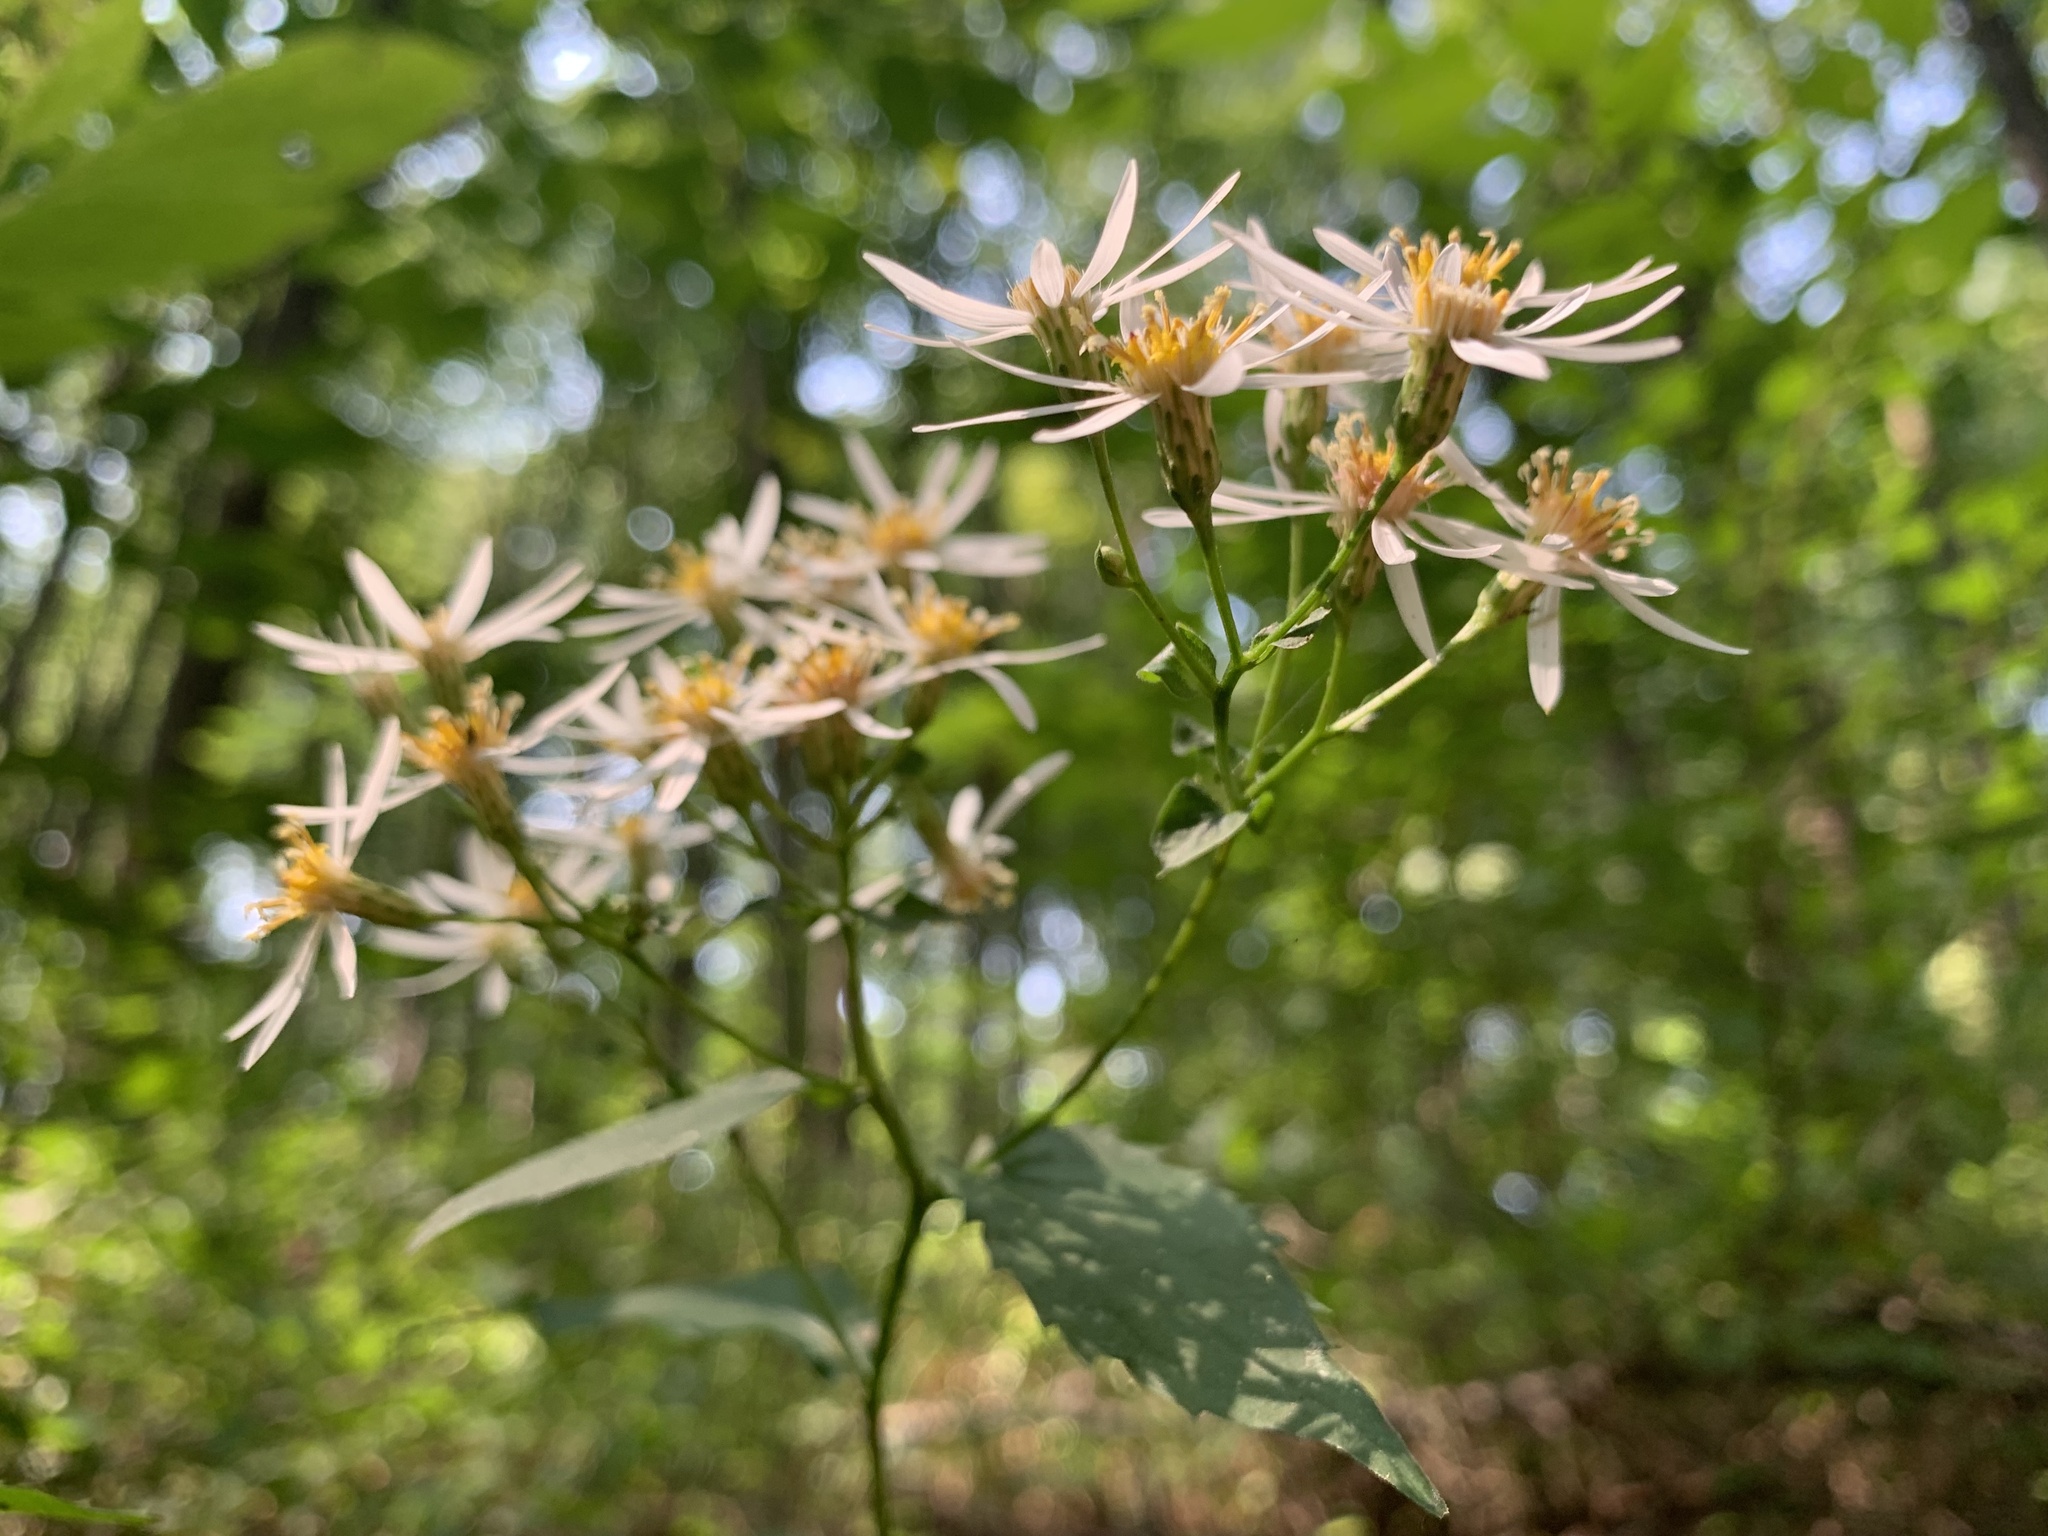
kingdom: Plantae
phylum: Tracheophyta
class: Magnoliopsida
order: Asterales
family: Asteraceae
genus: Eurybia
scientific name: Eurybia divaricata
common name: White wood aster
